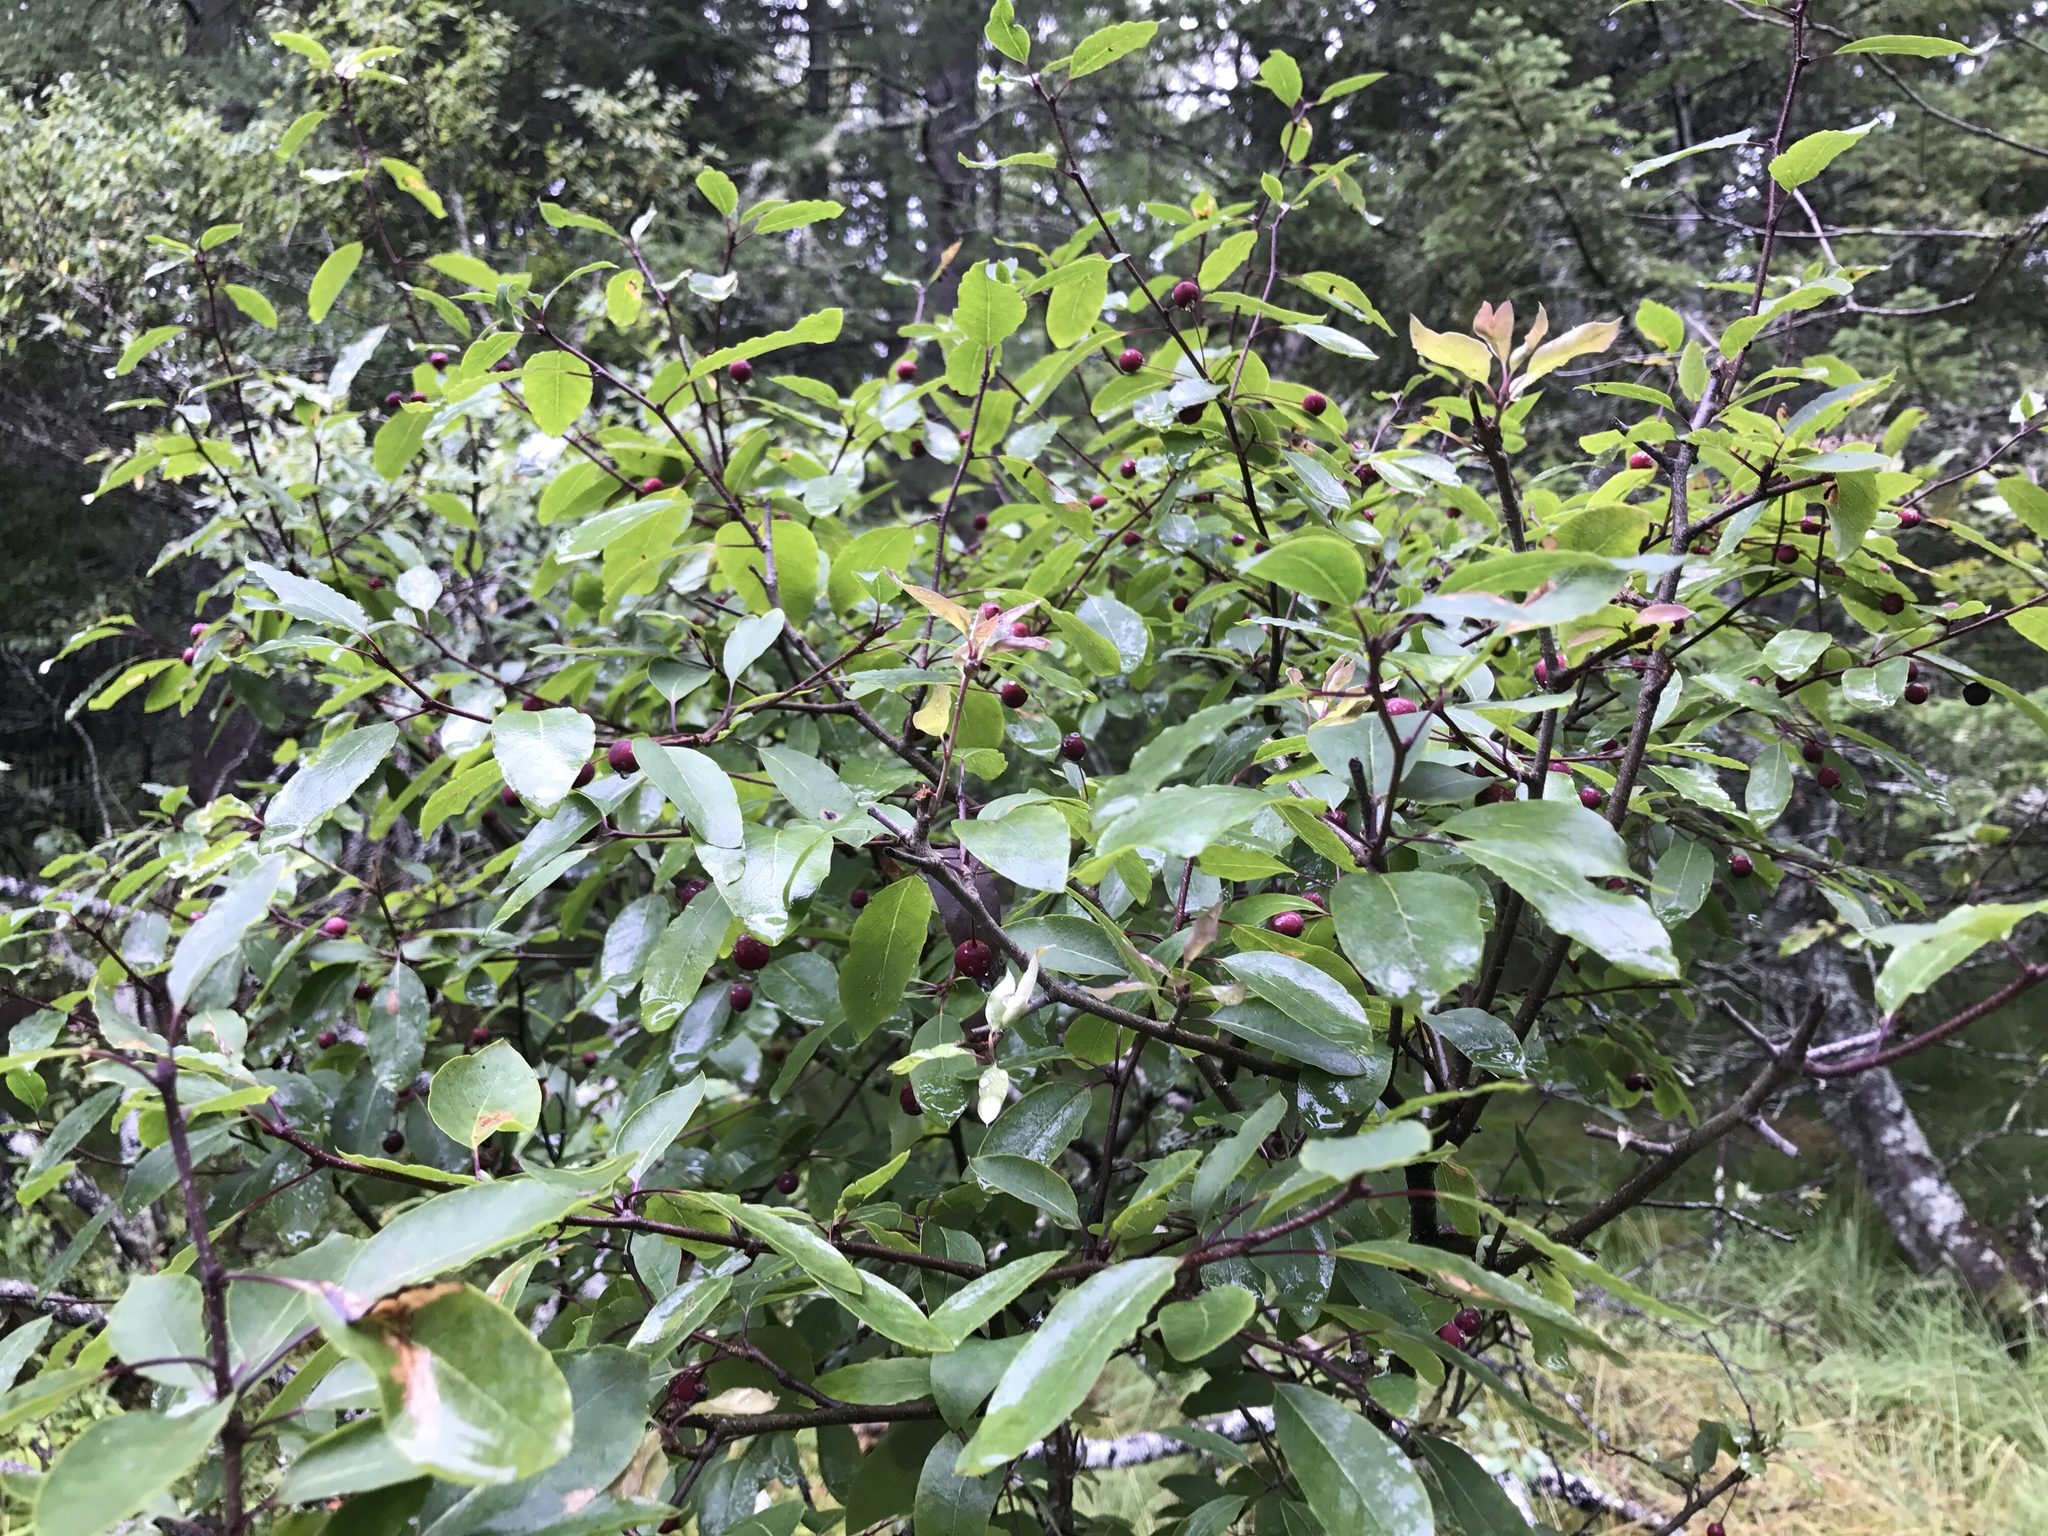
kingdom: Plantae
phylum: Tracheophyta
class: Magnoliopsida
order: Aquifoliales
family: Aquifoliaceae
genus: Ilex
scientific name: Ilex mucronata
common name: Catberry
